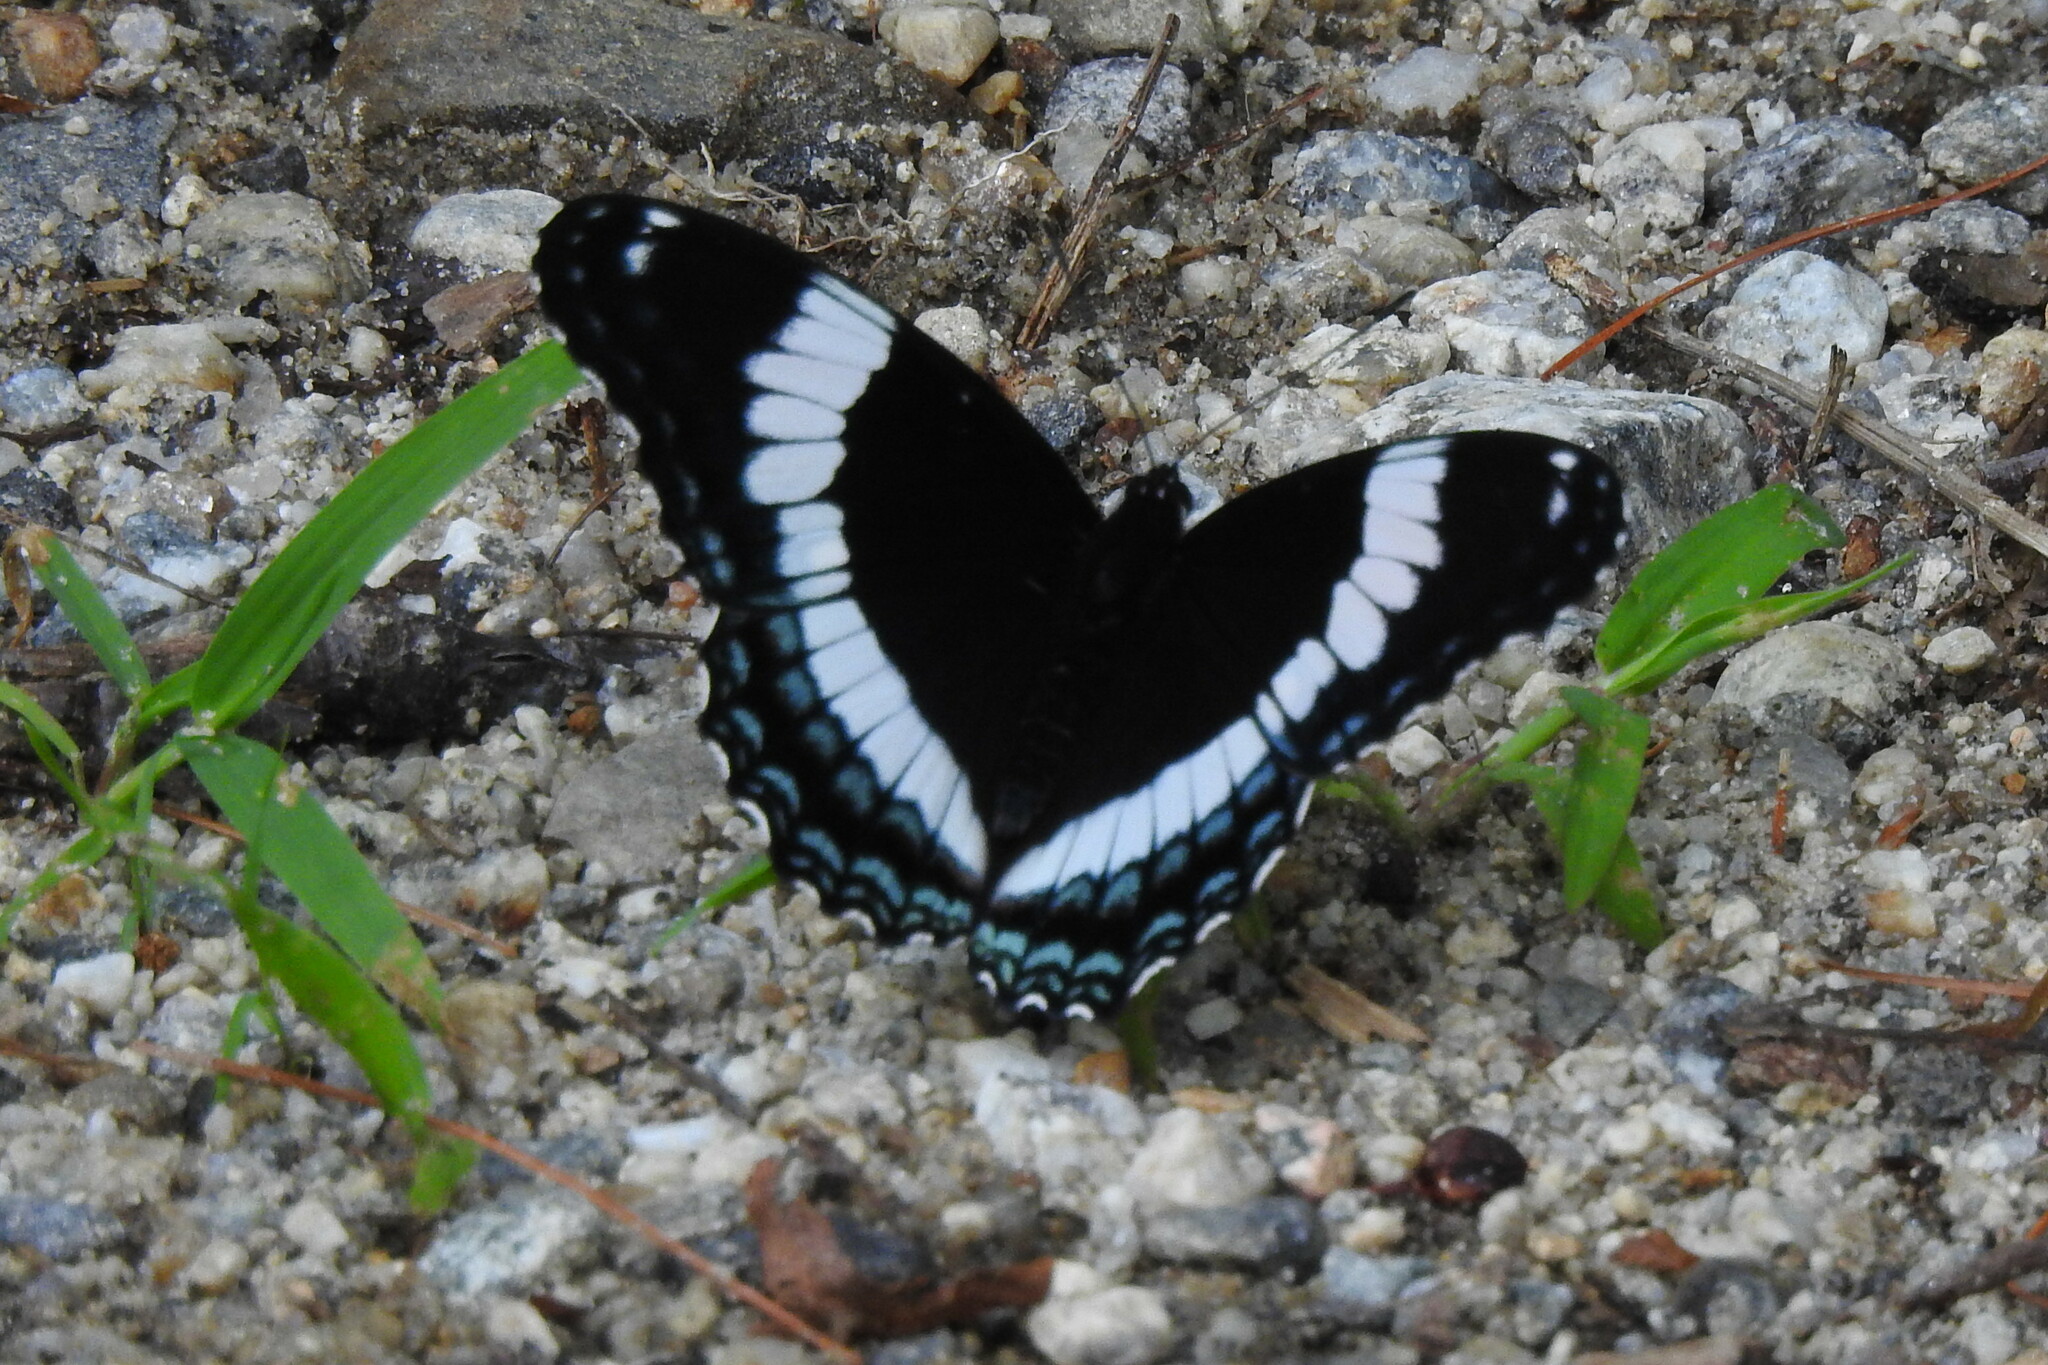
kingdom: Animalia
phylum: Arthropoda
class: Insecta
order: Lepidoptera
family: Nymphalidae
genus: Limenitis
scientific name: Limenitis arthemis
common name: Red-spotted admiral
